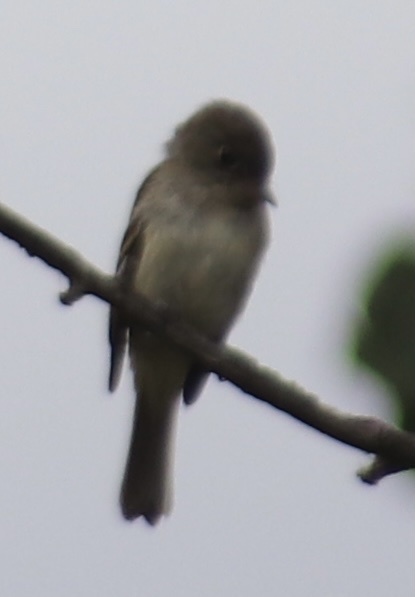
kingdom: Animalia
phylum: Chordata
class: Aves
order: Passeriformes
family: Tyrannidae
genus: Empidonax
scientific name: Empidonax minimus
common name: Least flycatcher
